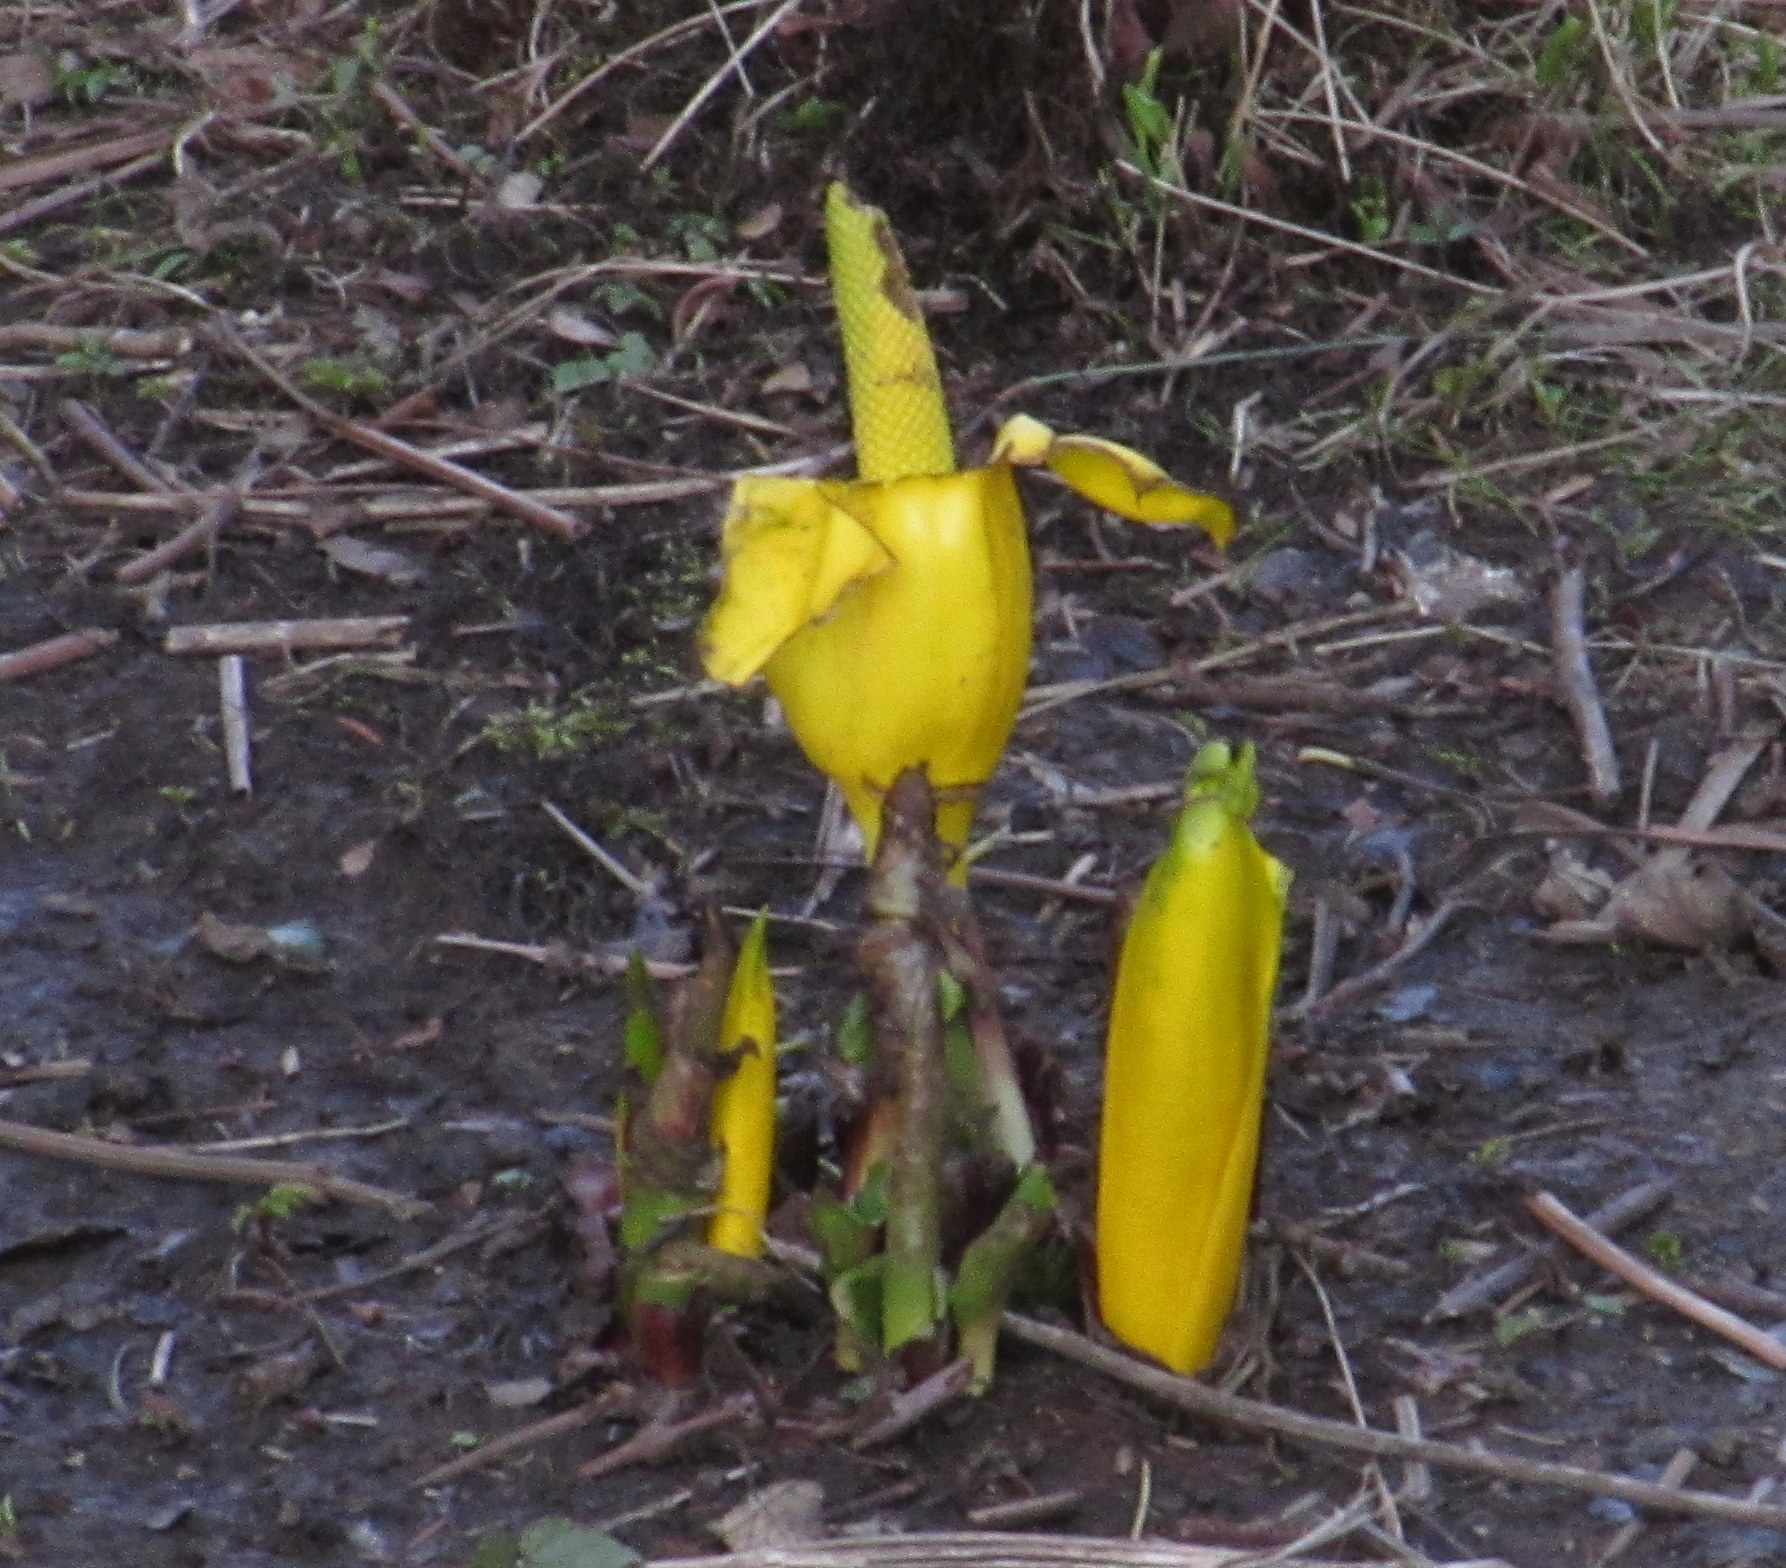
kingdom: Plantae
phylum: Tracheophyta
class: Liliopsida
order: Alismatales
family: Araceae
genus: Lysichiton
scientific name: Lysichiton americanus
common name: American skunk cabbage
